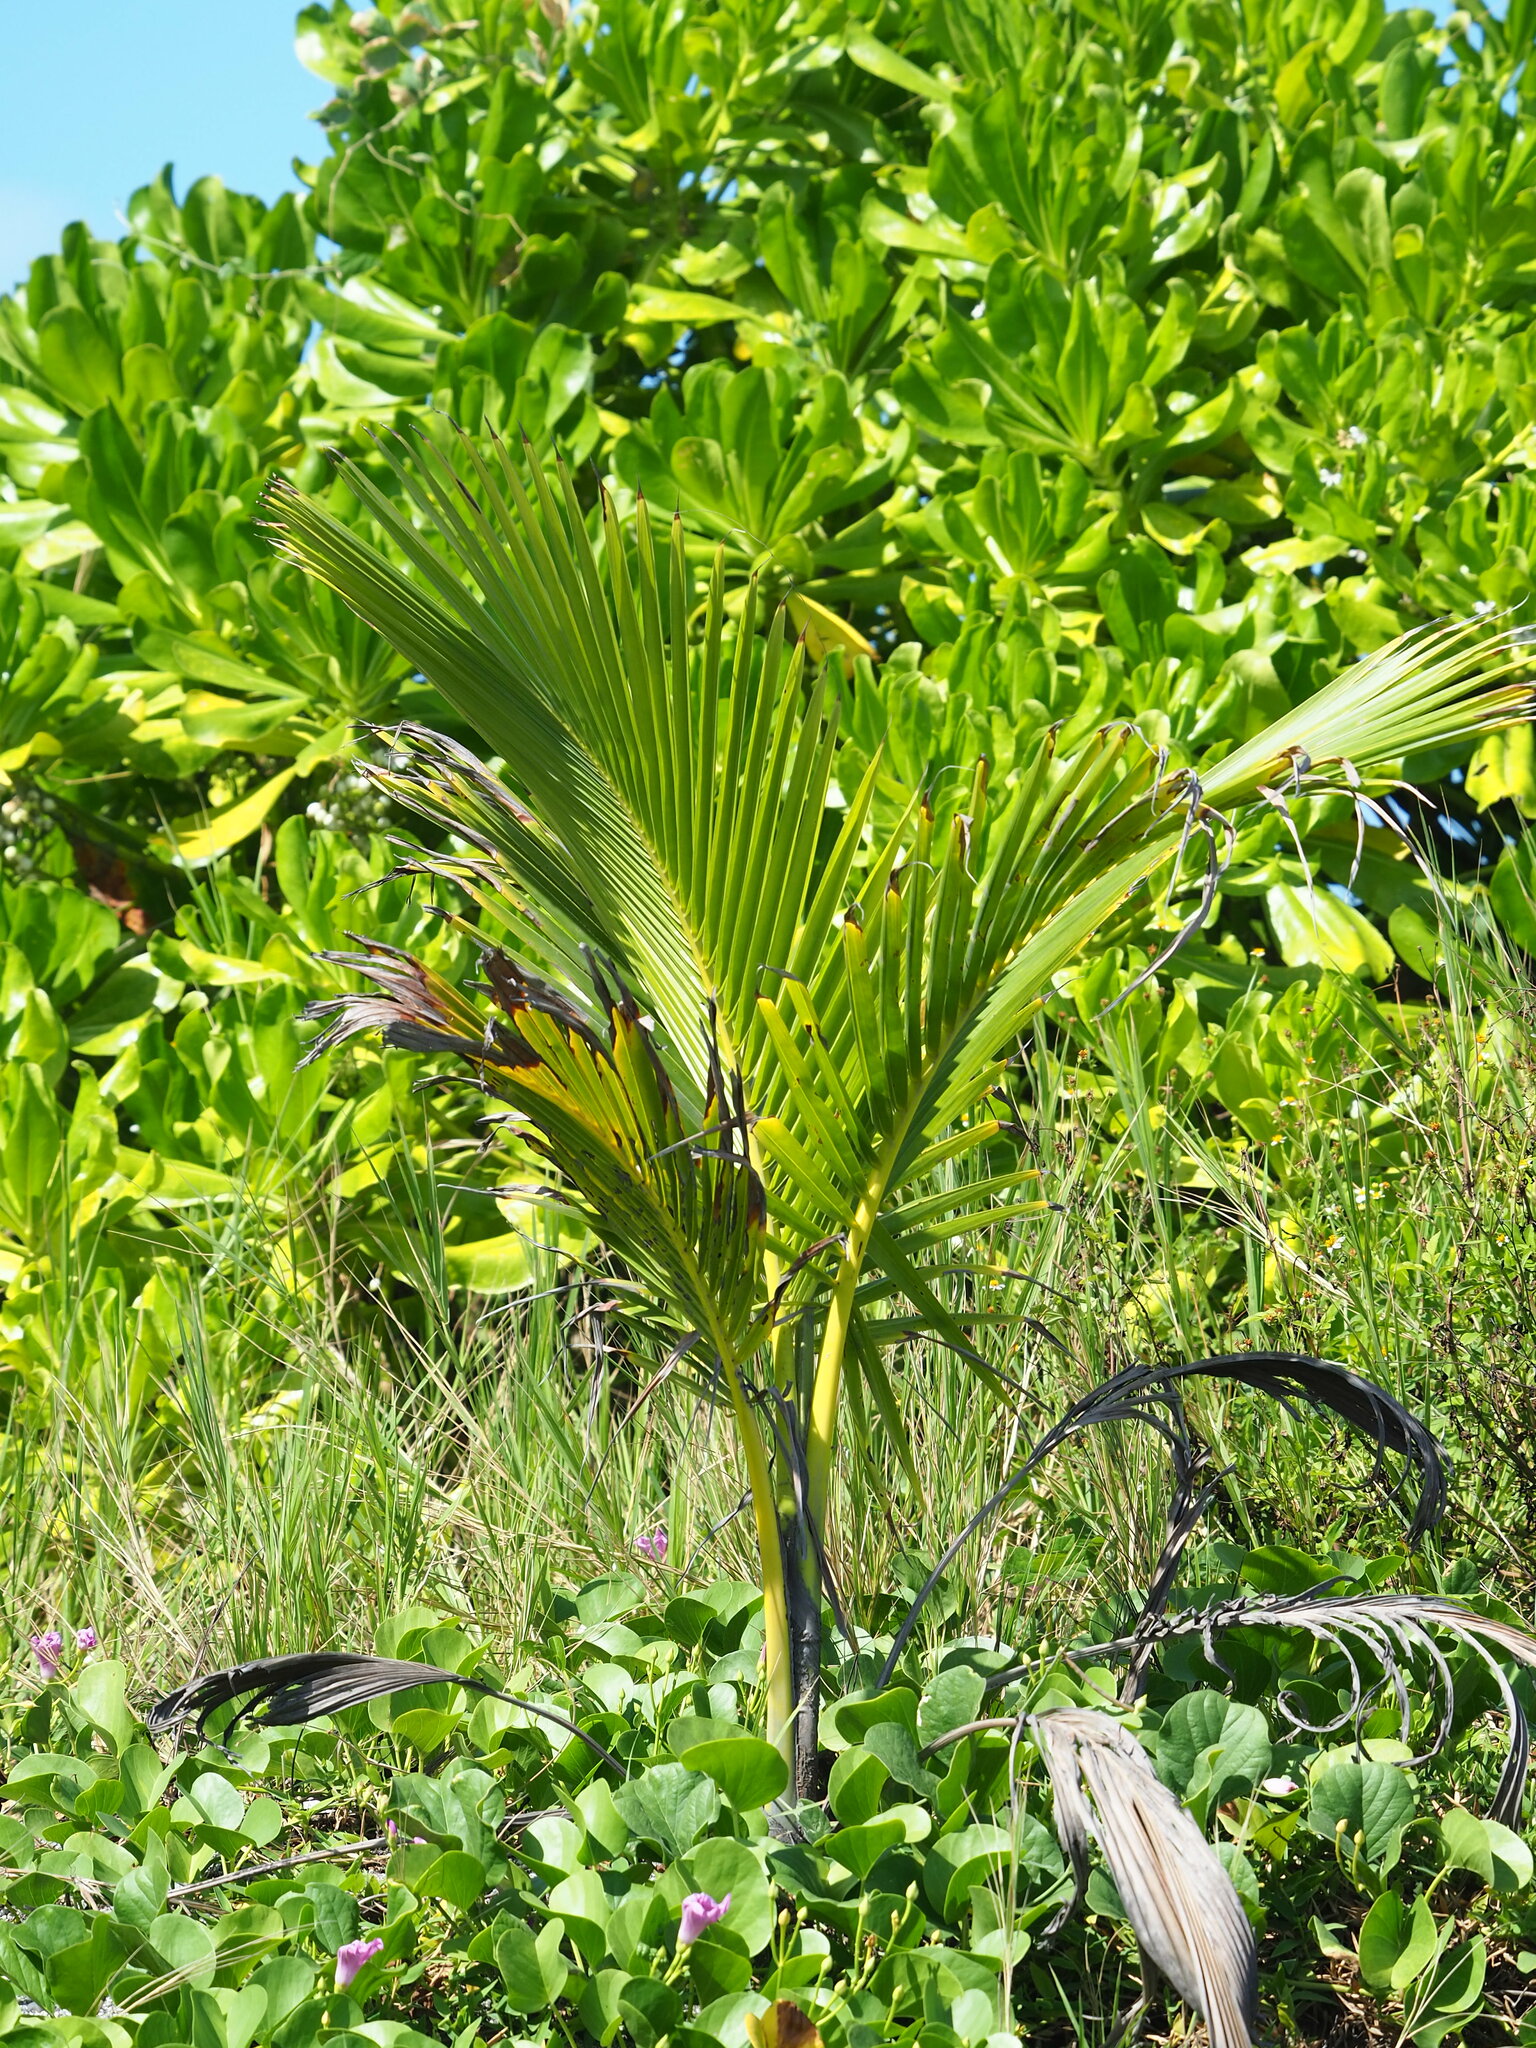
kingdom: Plantae
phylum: Tracheophyta
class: Liliopsida
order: Arecales
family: Arecaceae
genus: Cocos
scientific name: Cocos nucifera
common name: Coconut palm
